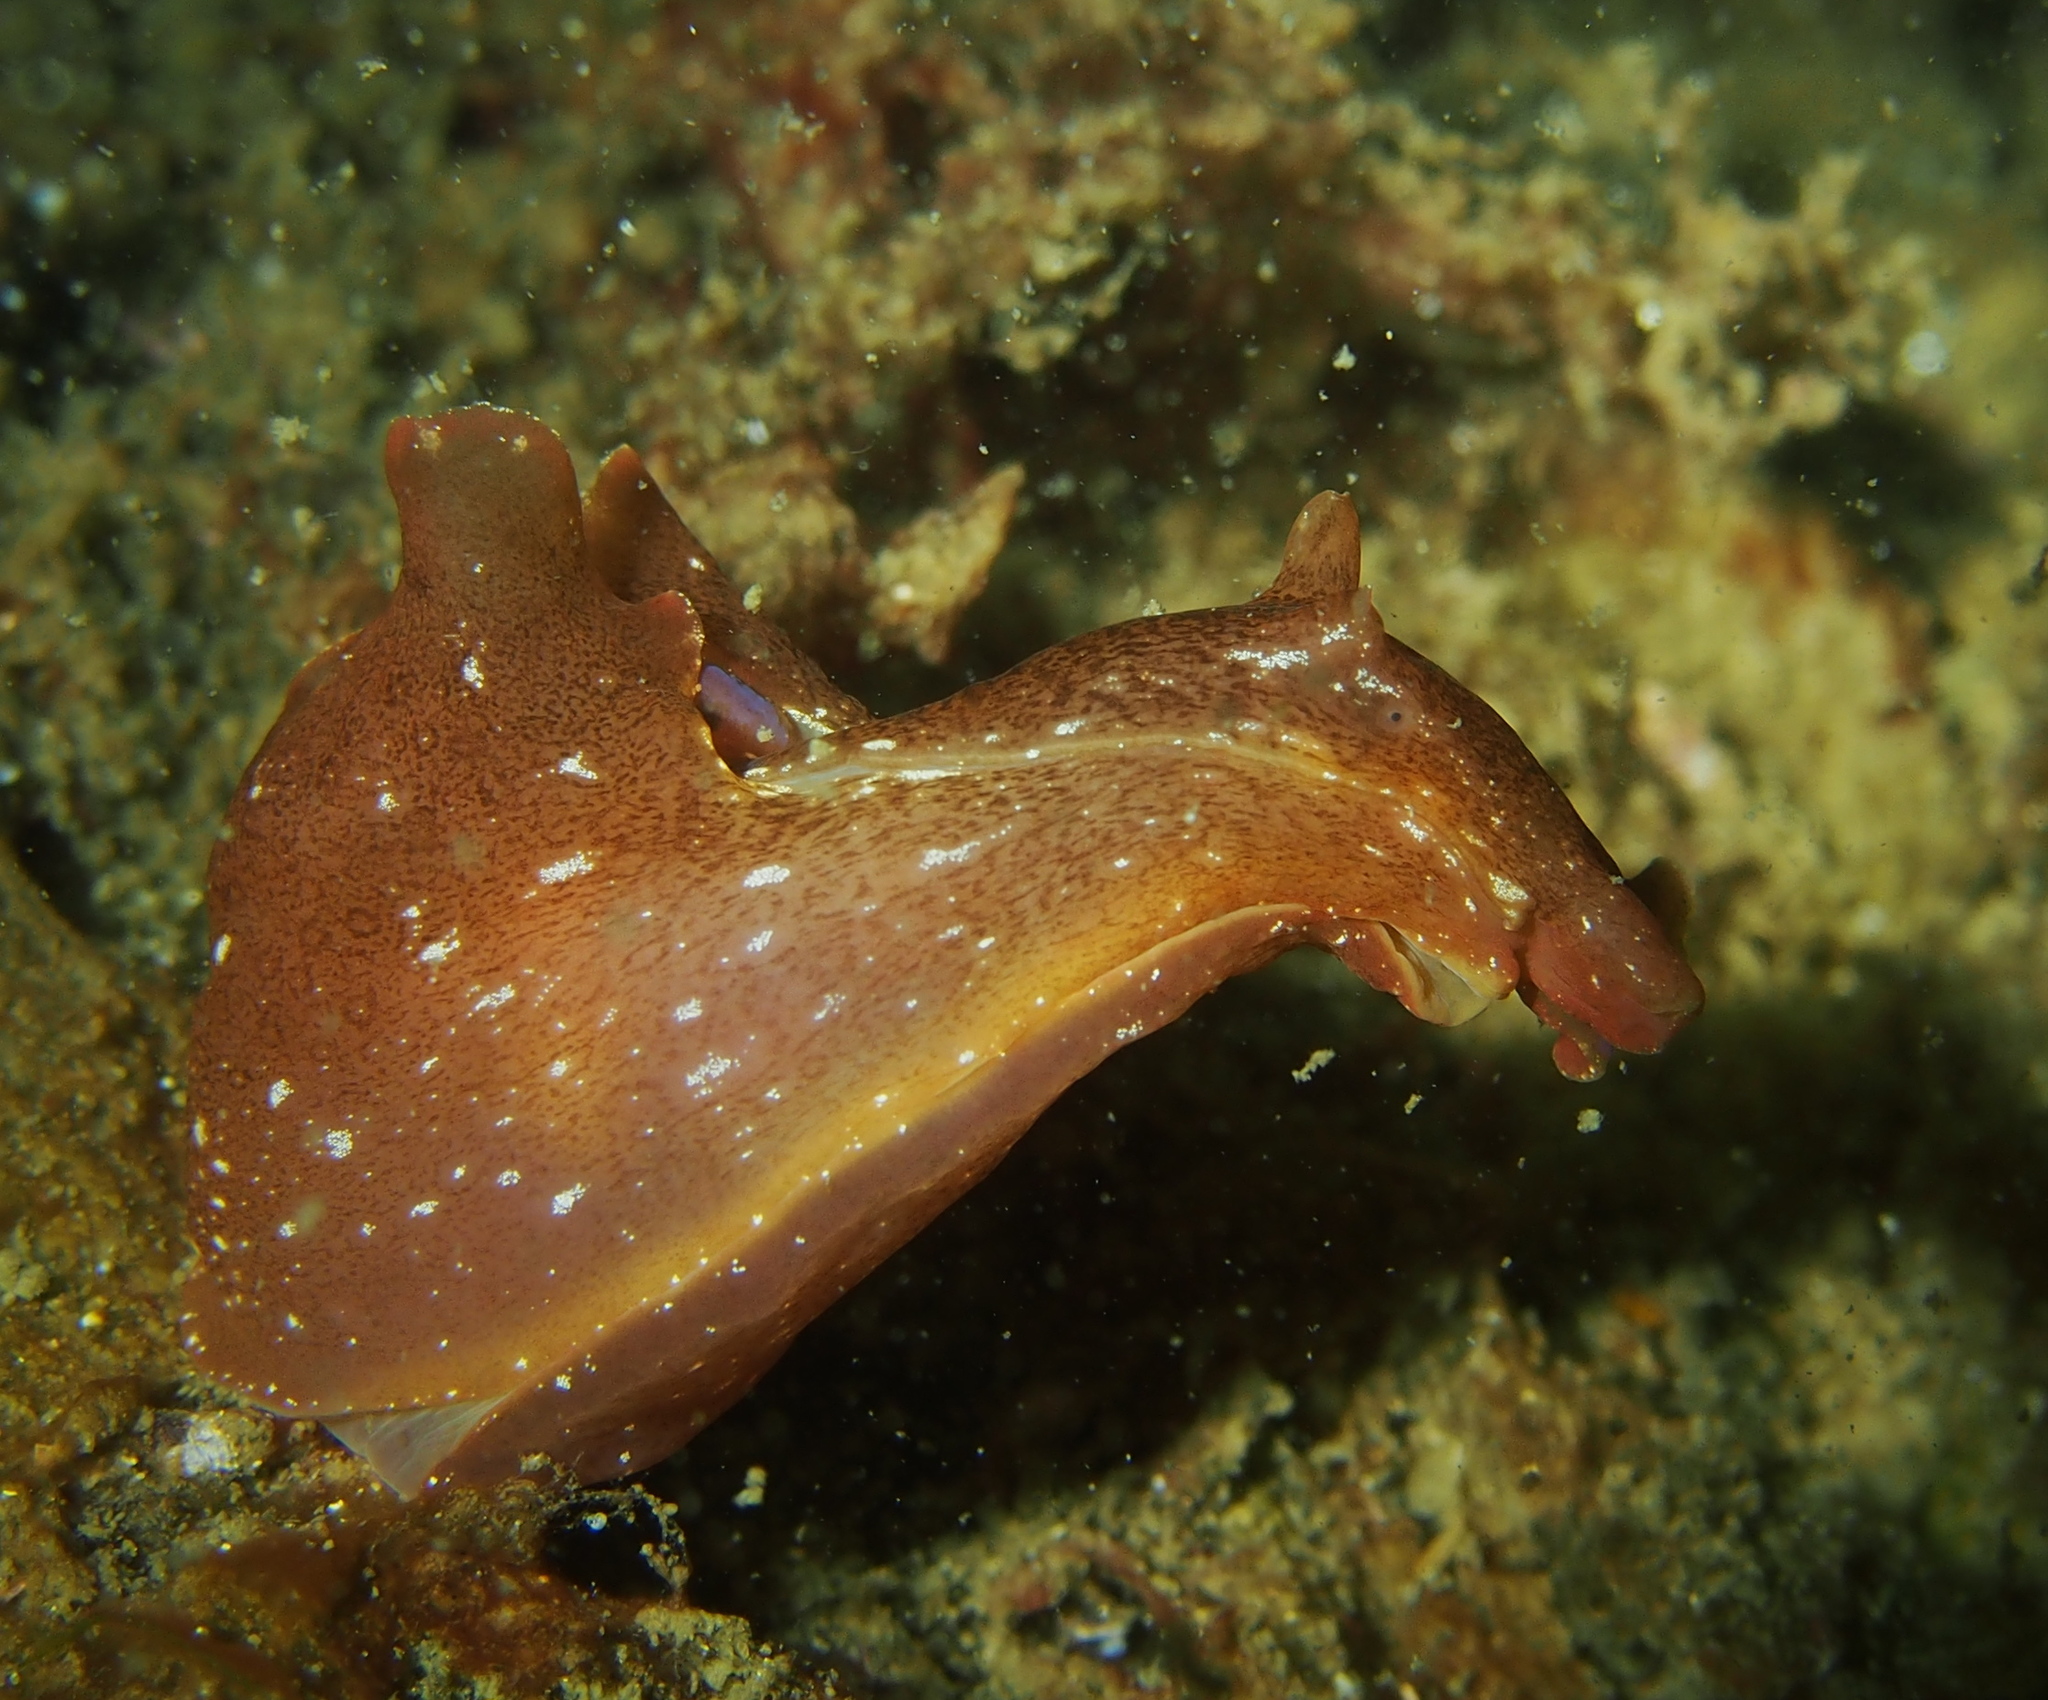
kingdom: Animalia
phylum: Mollusca
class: Gastropoda
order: Aplysiida
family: Aplysiidae
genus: Aplysia
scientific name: Aplysia punctata
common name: Common sea hare
